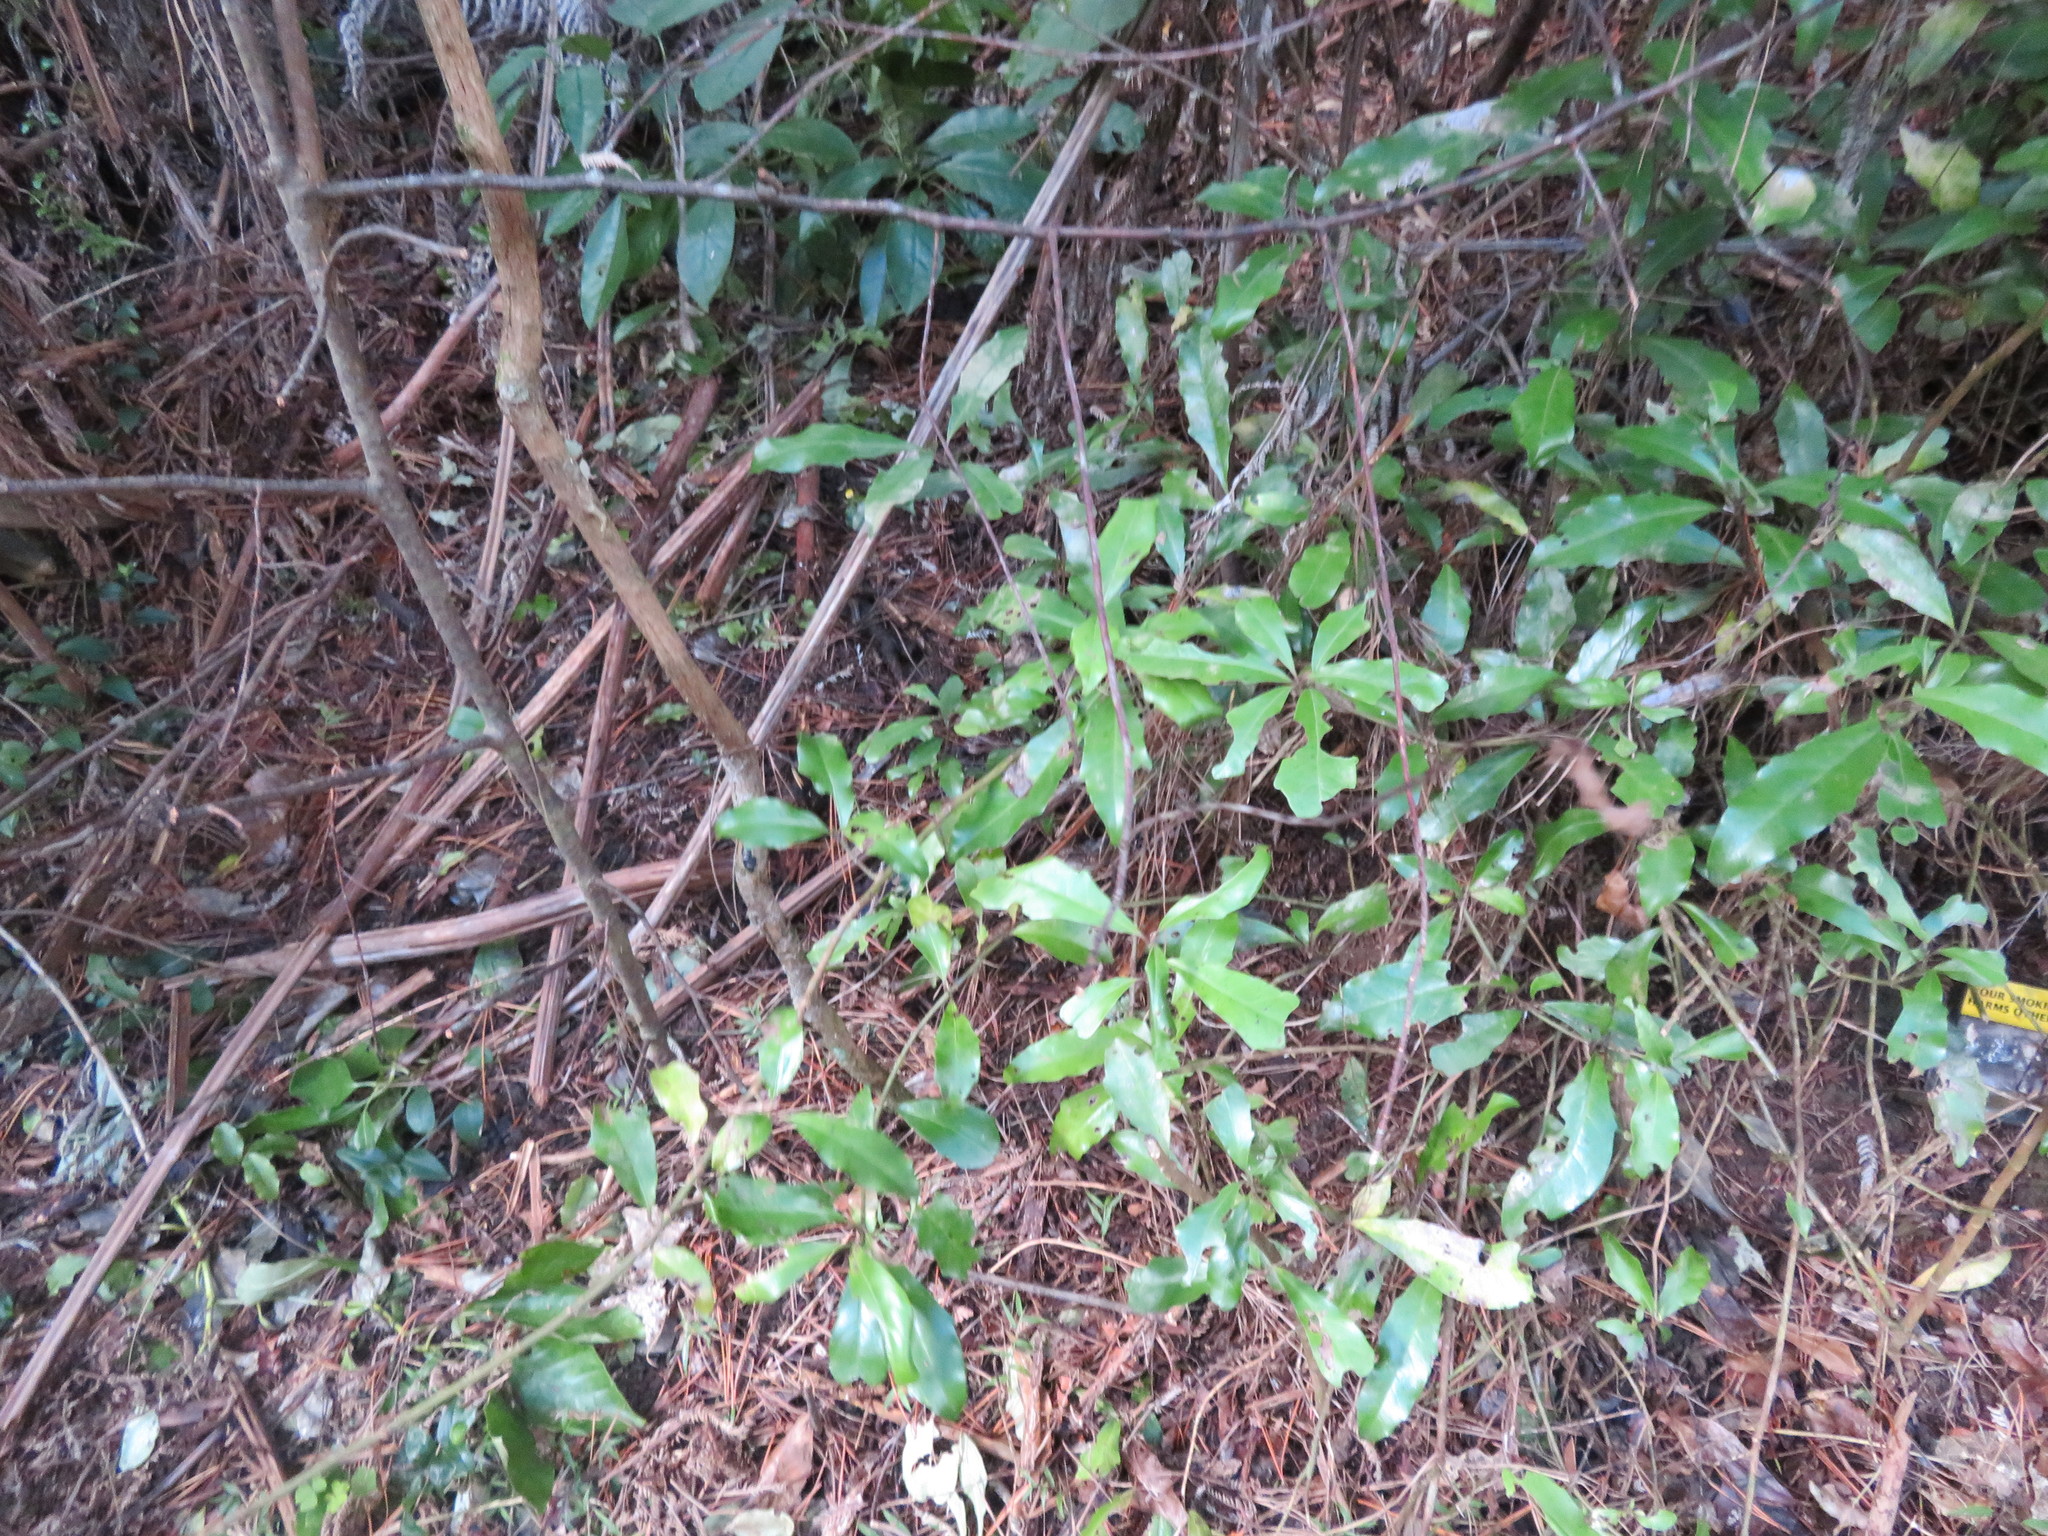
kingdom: Plantae
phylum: Tracheophyta
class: Magnoliopsida
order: Asterales
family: Alseuosmiaceae
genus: Alseuosmia
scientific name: Alseuosmia macrophylla
